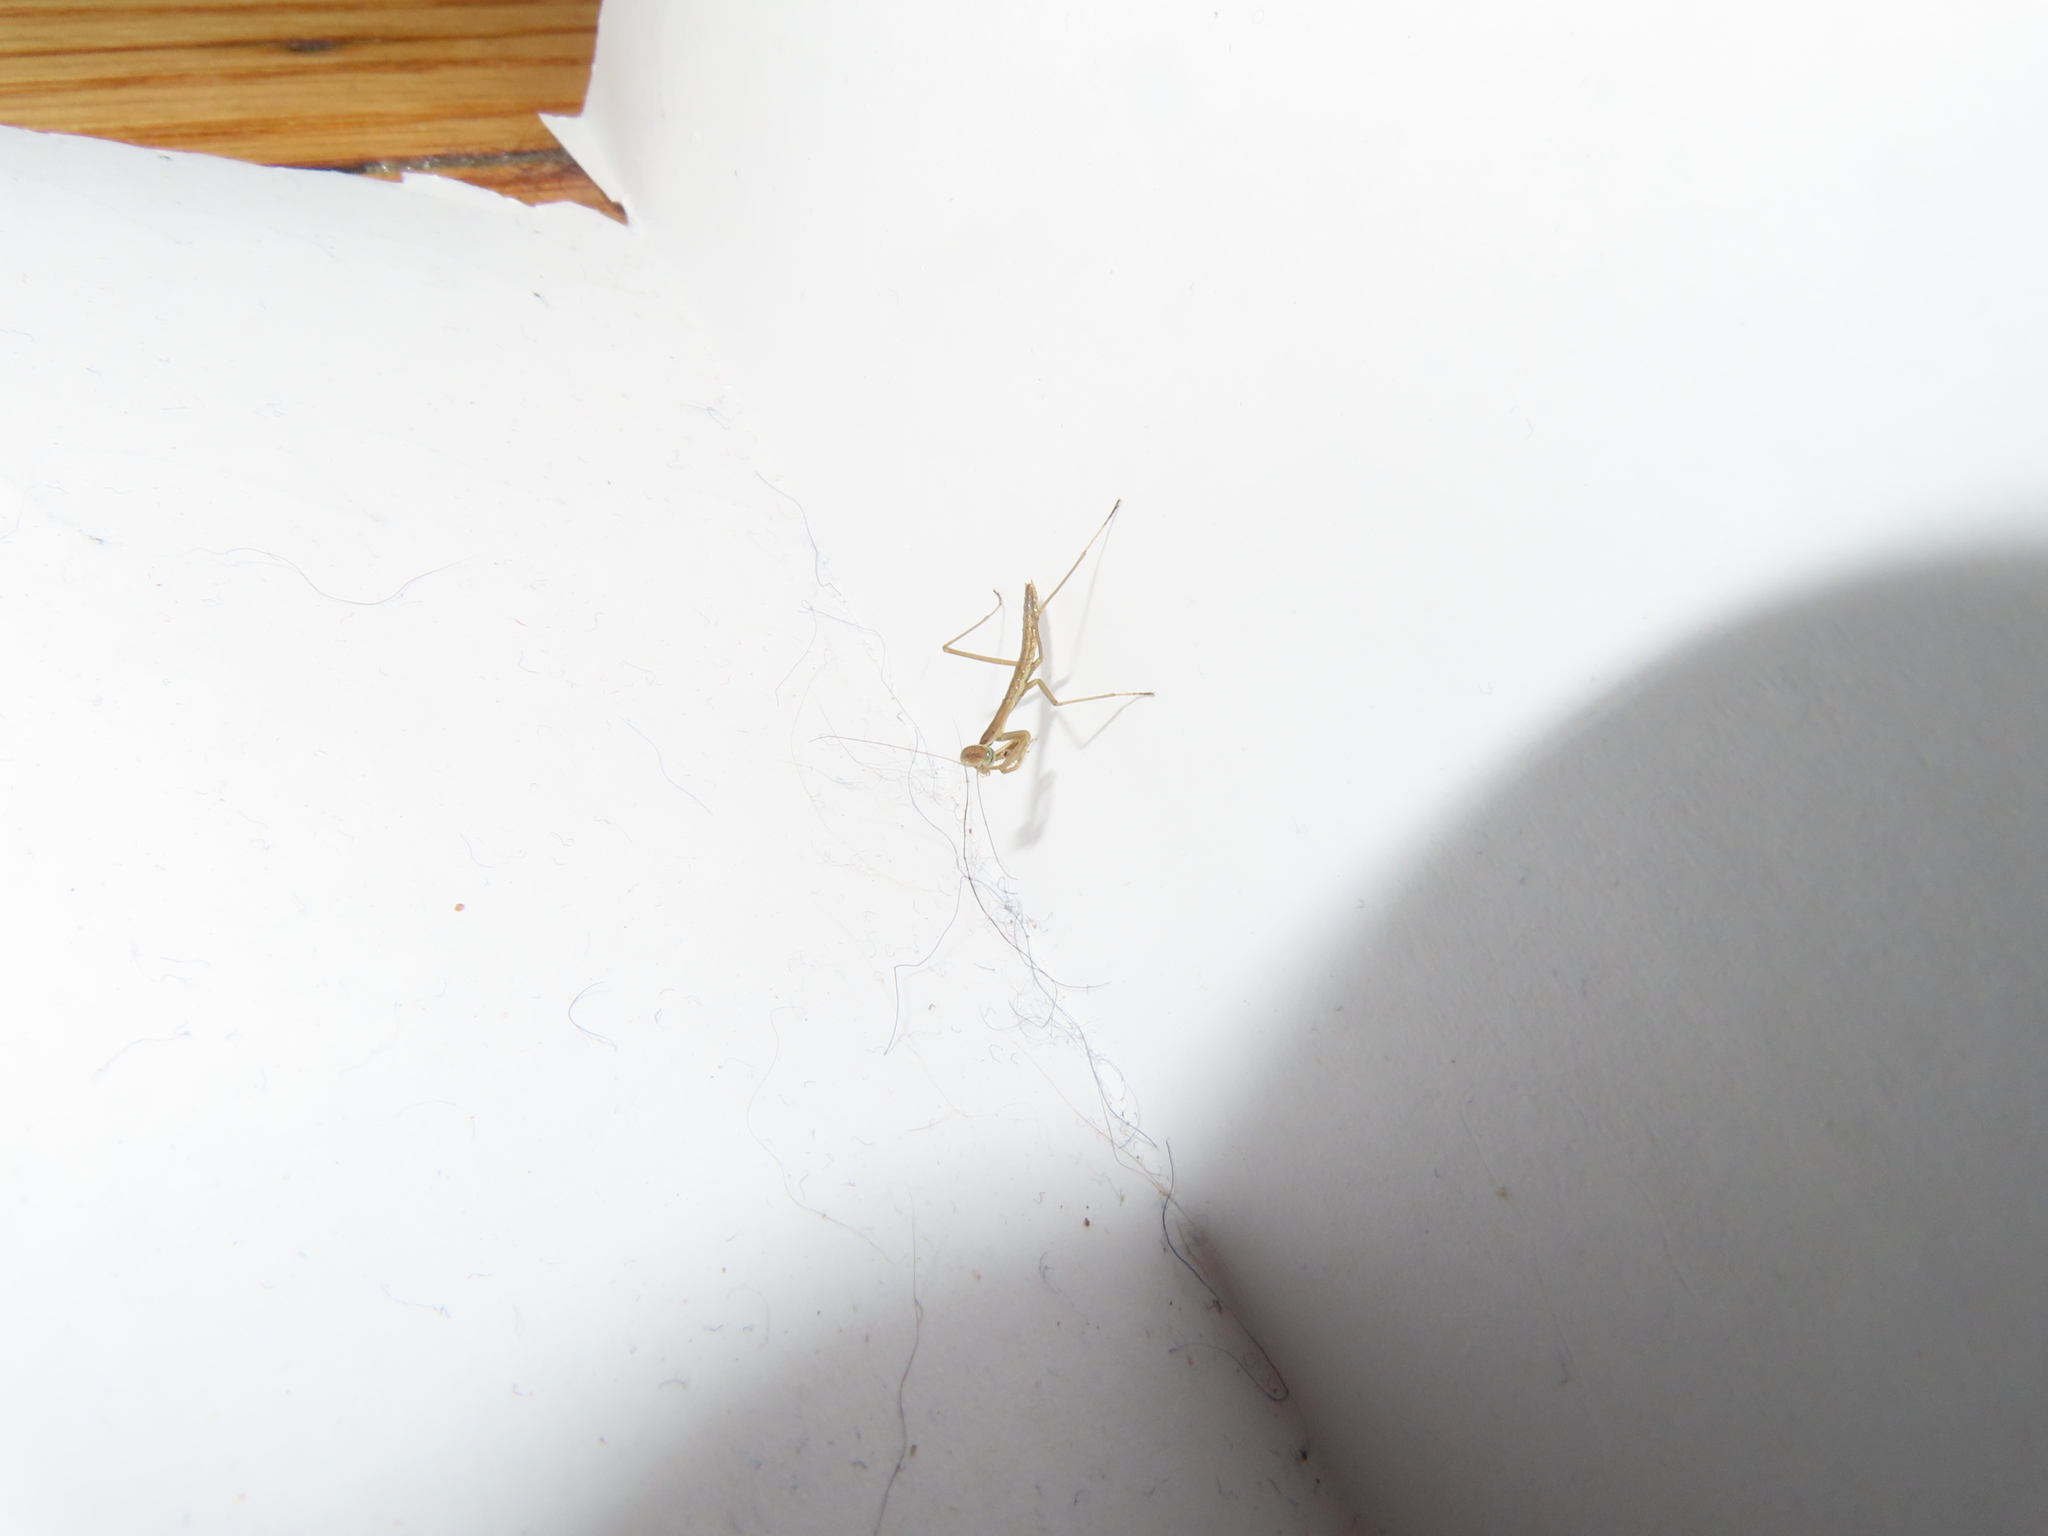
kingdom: Animalia
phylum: Arthropoda
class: Insecta
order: Mantodea
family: Mantidae
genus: Tenodera
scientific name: Tenodera sinensis
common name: Chinese mantis
